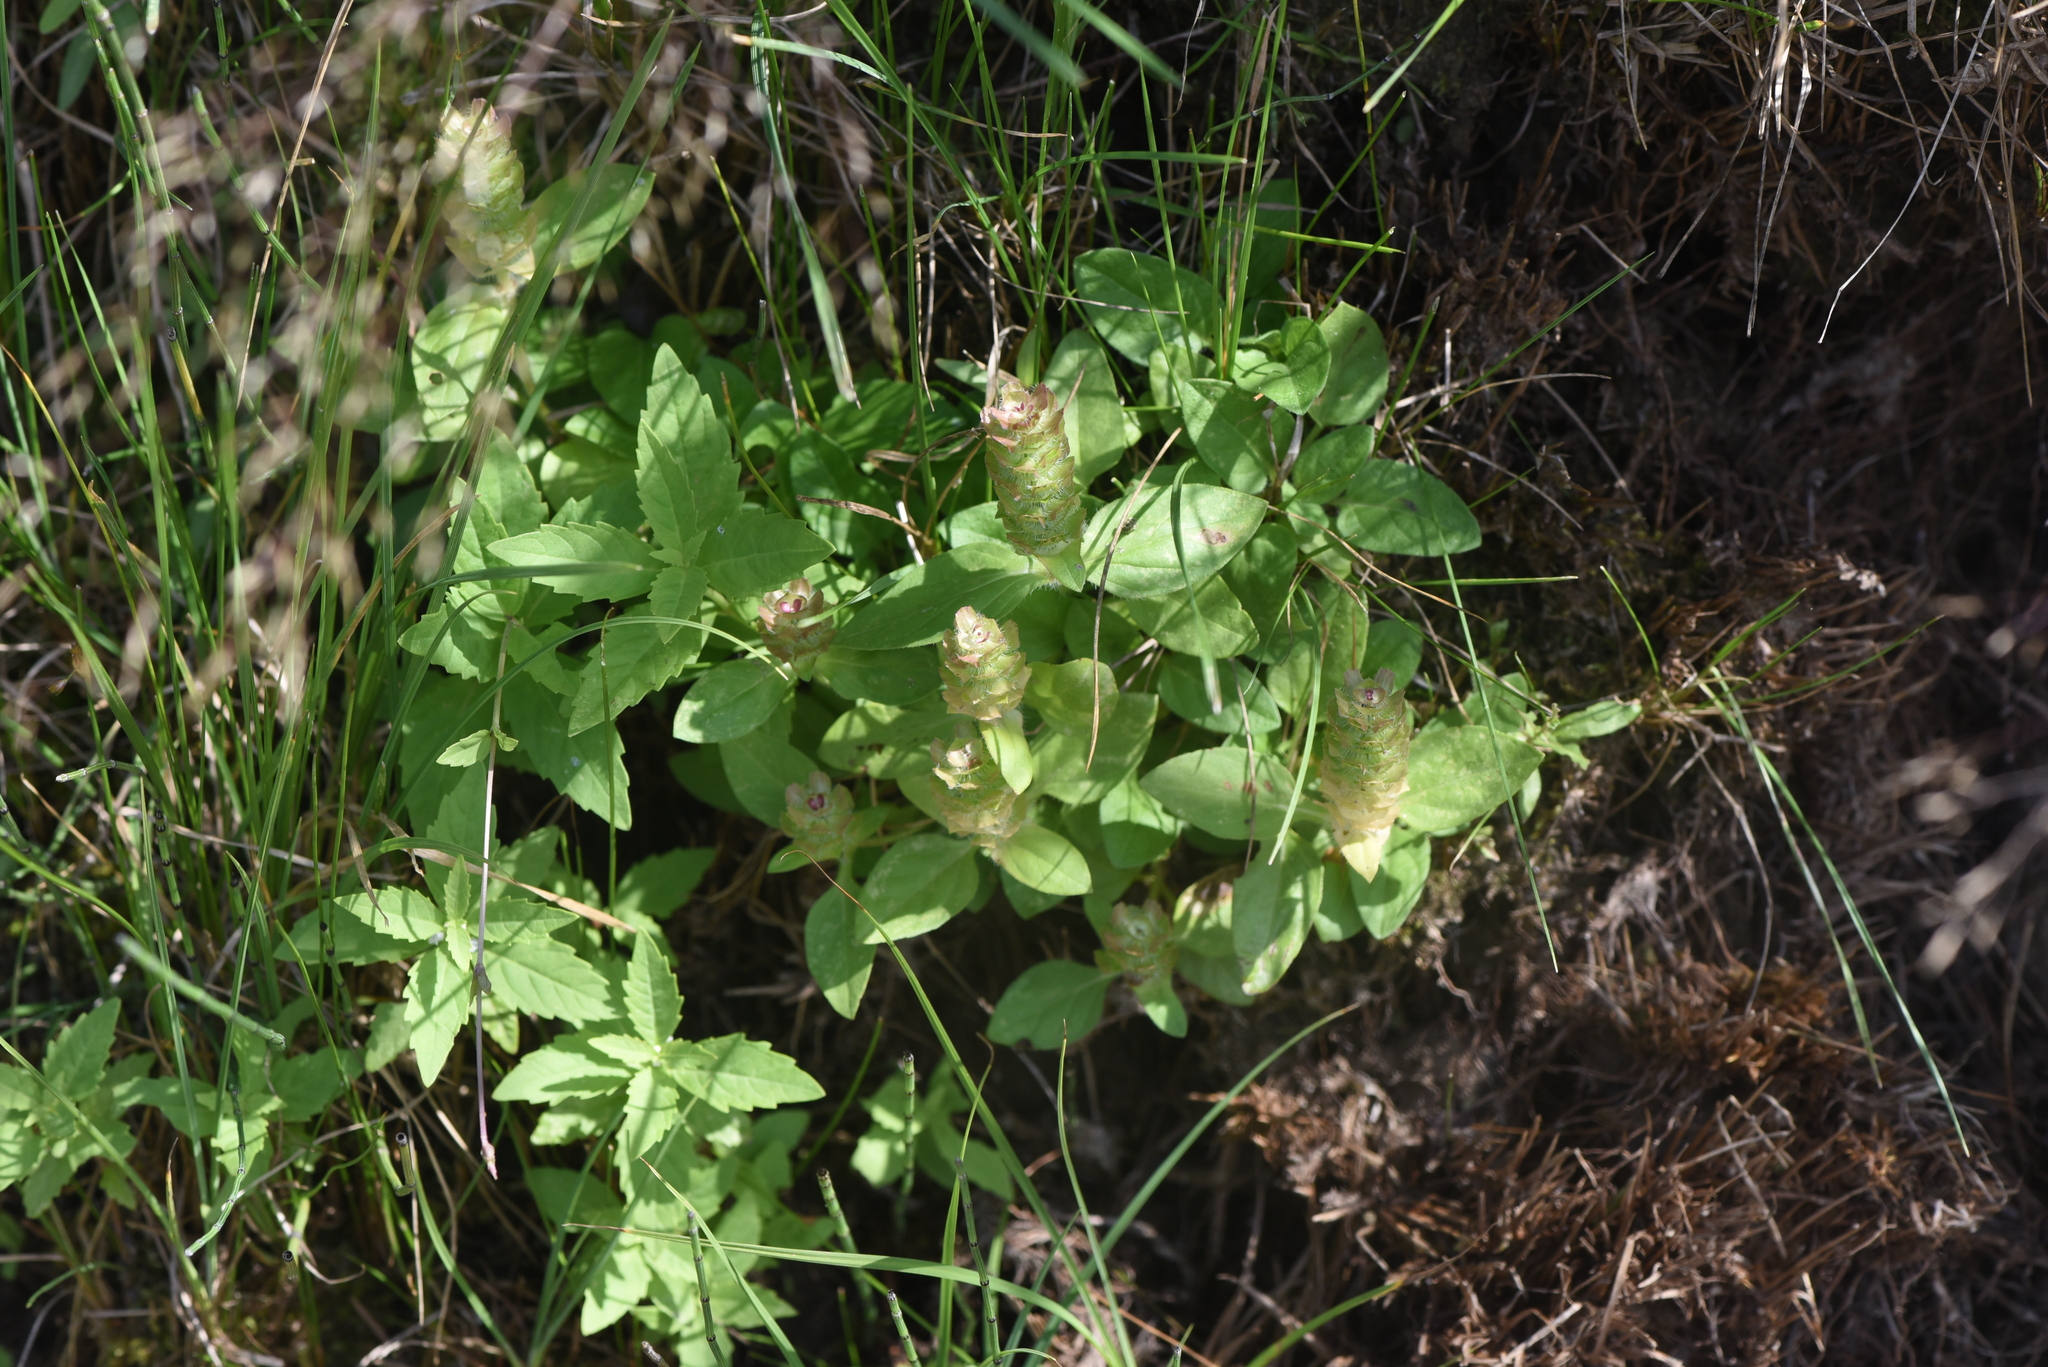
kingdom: Plantae
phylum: Tracheophyta
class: Magnoliopsida
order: Lamiales
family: Lamiaceae
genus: Prunella
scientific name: Prunella vulgaris
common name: Heal-all
